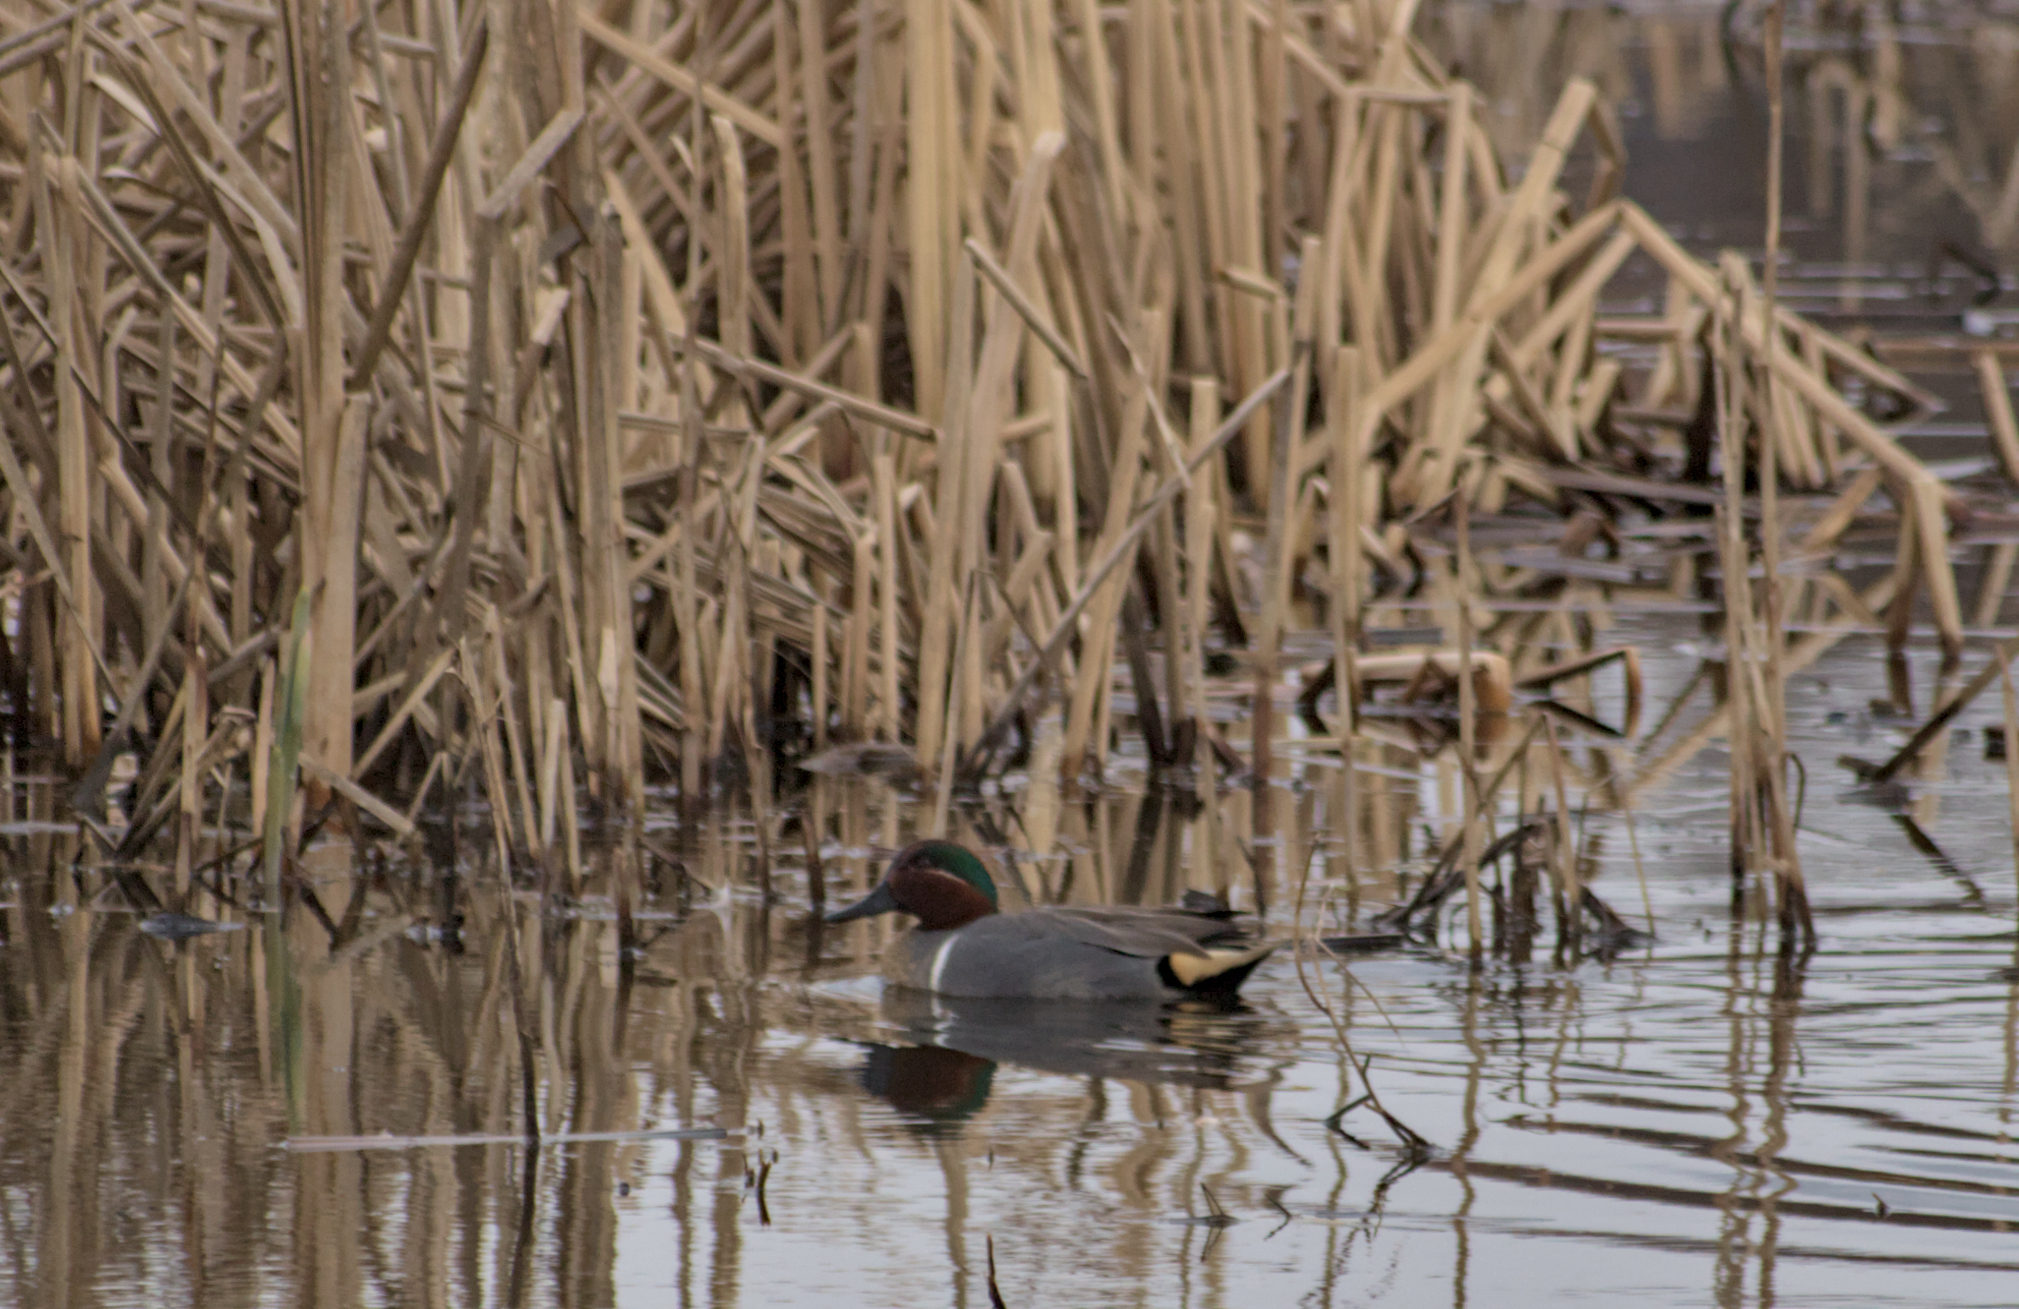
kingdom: Animalia
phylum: Chordata
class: Aves
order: Anseriformes
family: Anatidae
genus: Anas
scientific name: Anas crecca
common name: Eurasian teal
